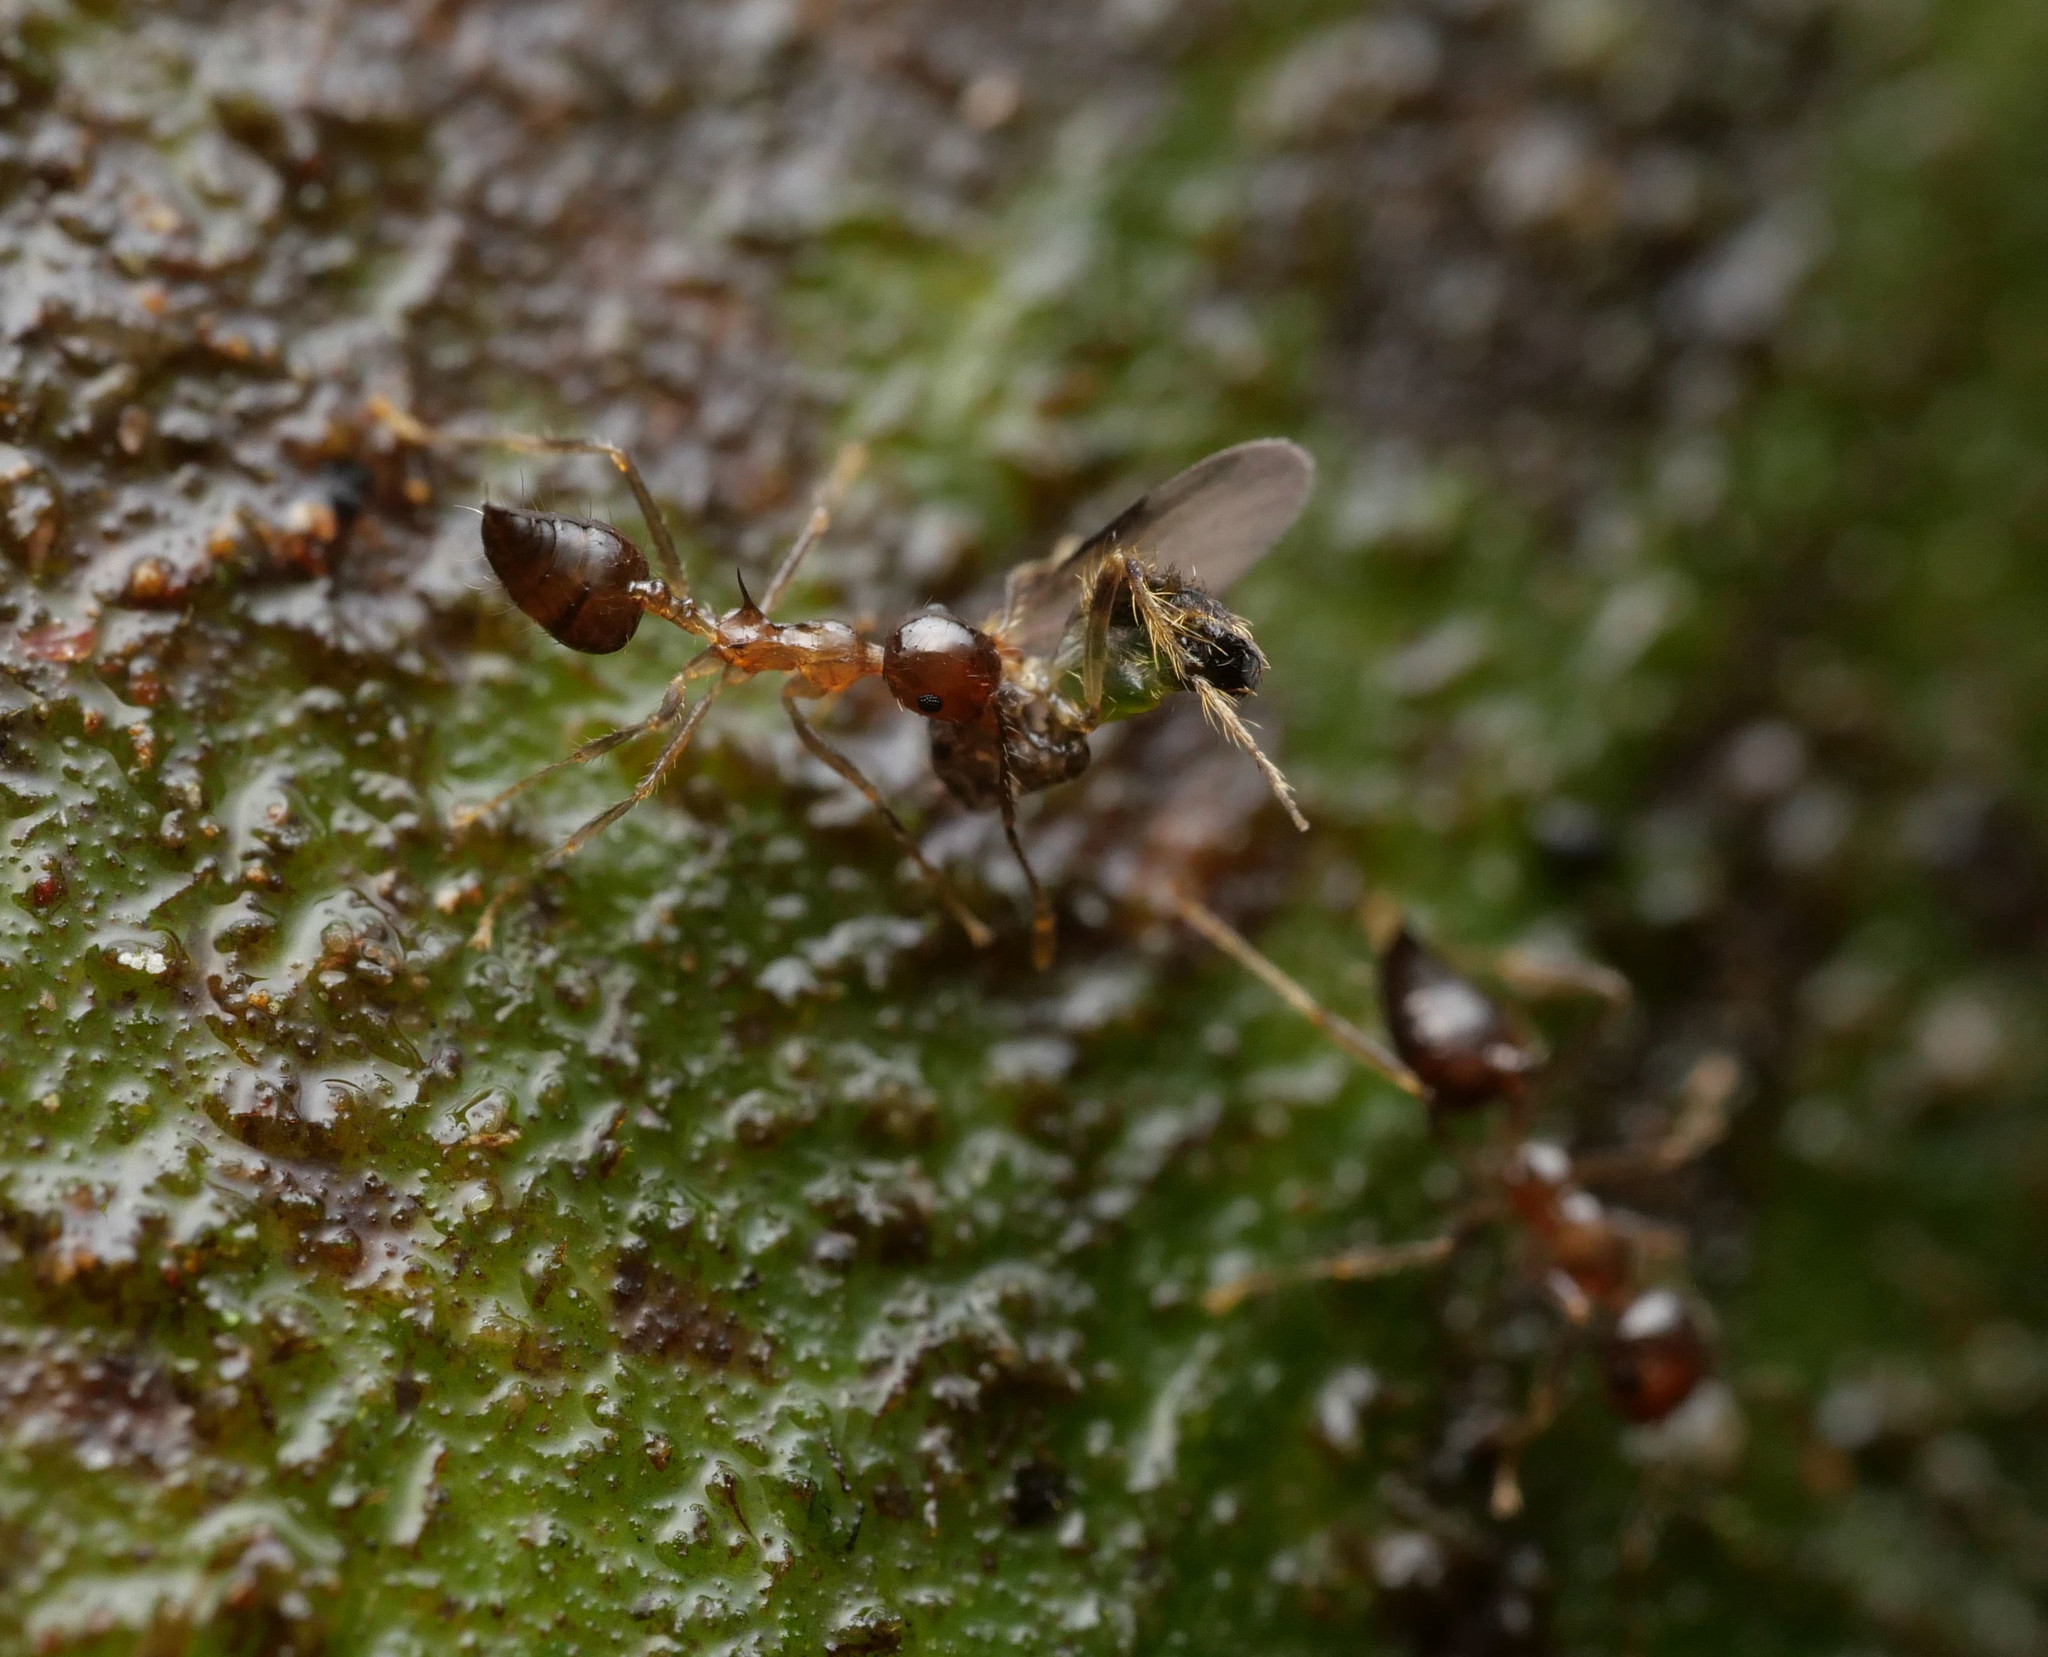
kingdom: Animalia
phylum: Arthropoda
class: Insecta
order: Hymenoptera
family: Formicidae
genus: Crematogaster
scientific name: Crematogaster longispina
